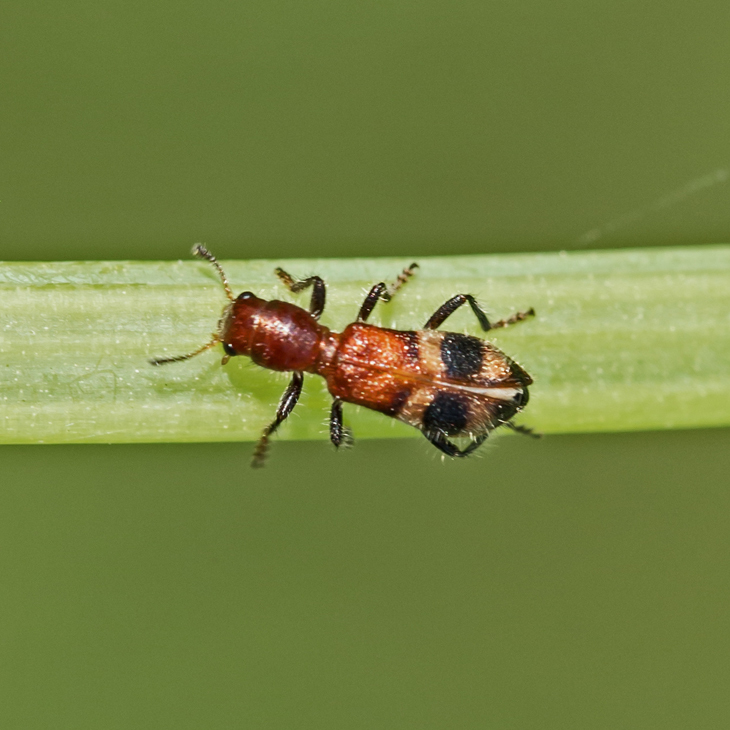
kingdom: Animalia
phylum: Arthropoda
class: Insecta
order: Coleoptera
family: Cleridae
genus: Enoclerus
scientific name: Enoclerus rosmarus
